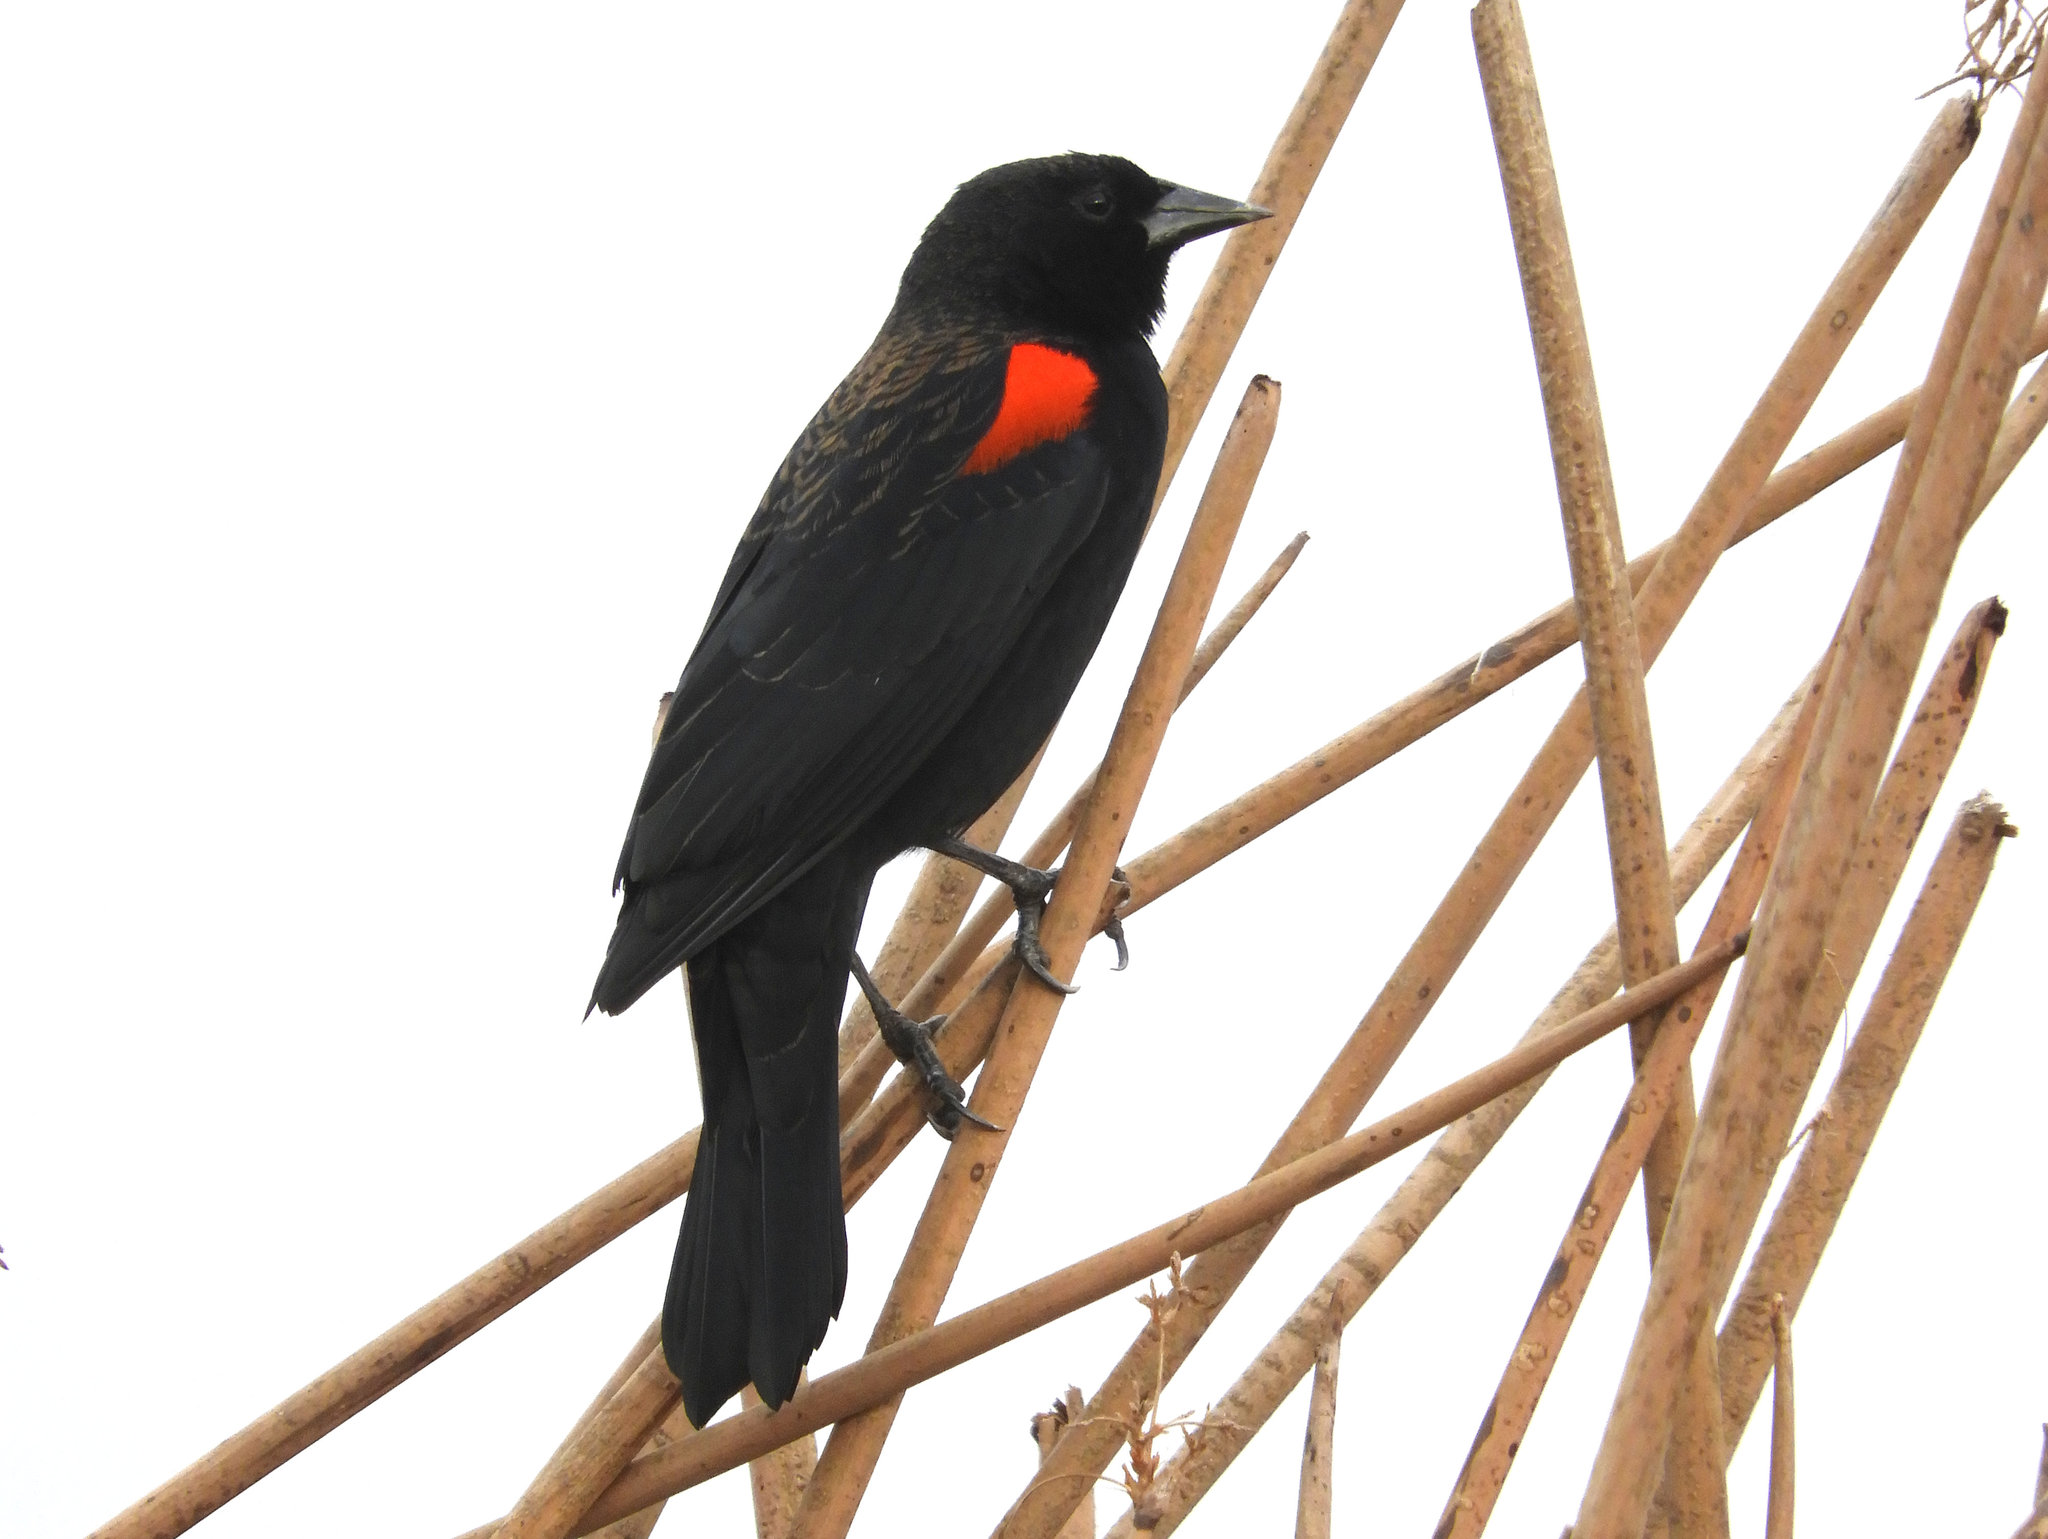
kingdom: Animalia
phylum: Chordata
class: Aves
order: Passeriformes
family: Icteridae
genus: Agelaius
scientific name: Agelaius phoeniceus
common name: Red-winged blackbird
